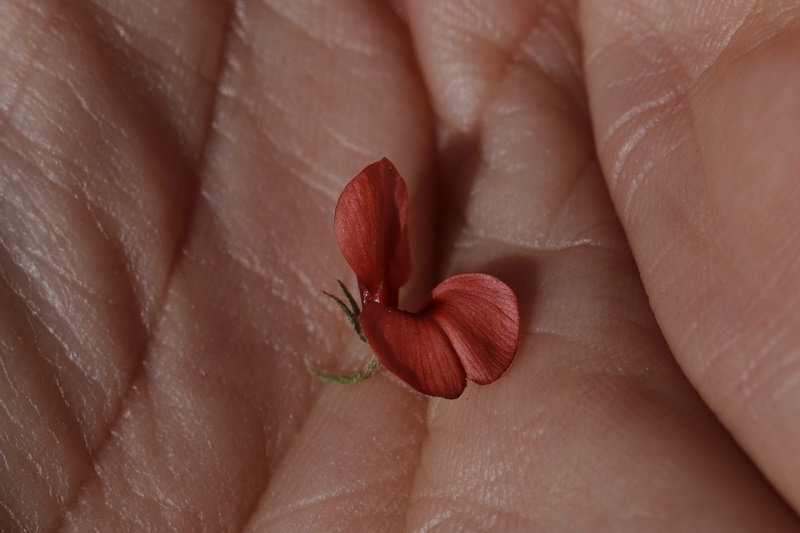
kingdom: Plantae
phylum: Tracheophyta
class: Magnoliopsida
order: Fabales
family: Fabaceae
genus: Indigofera
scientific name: Indigofera heterophylla
